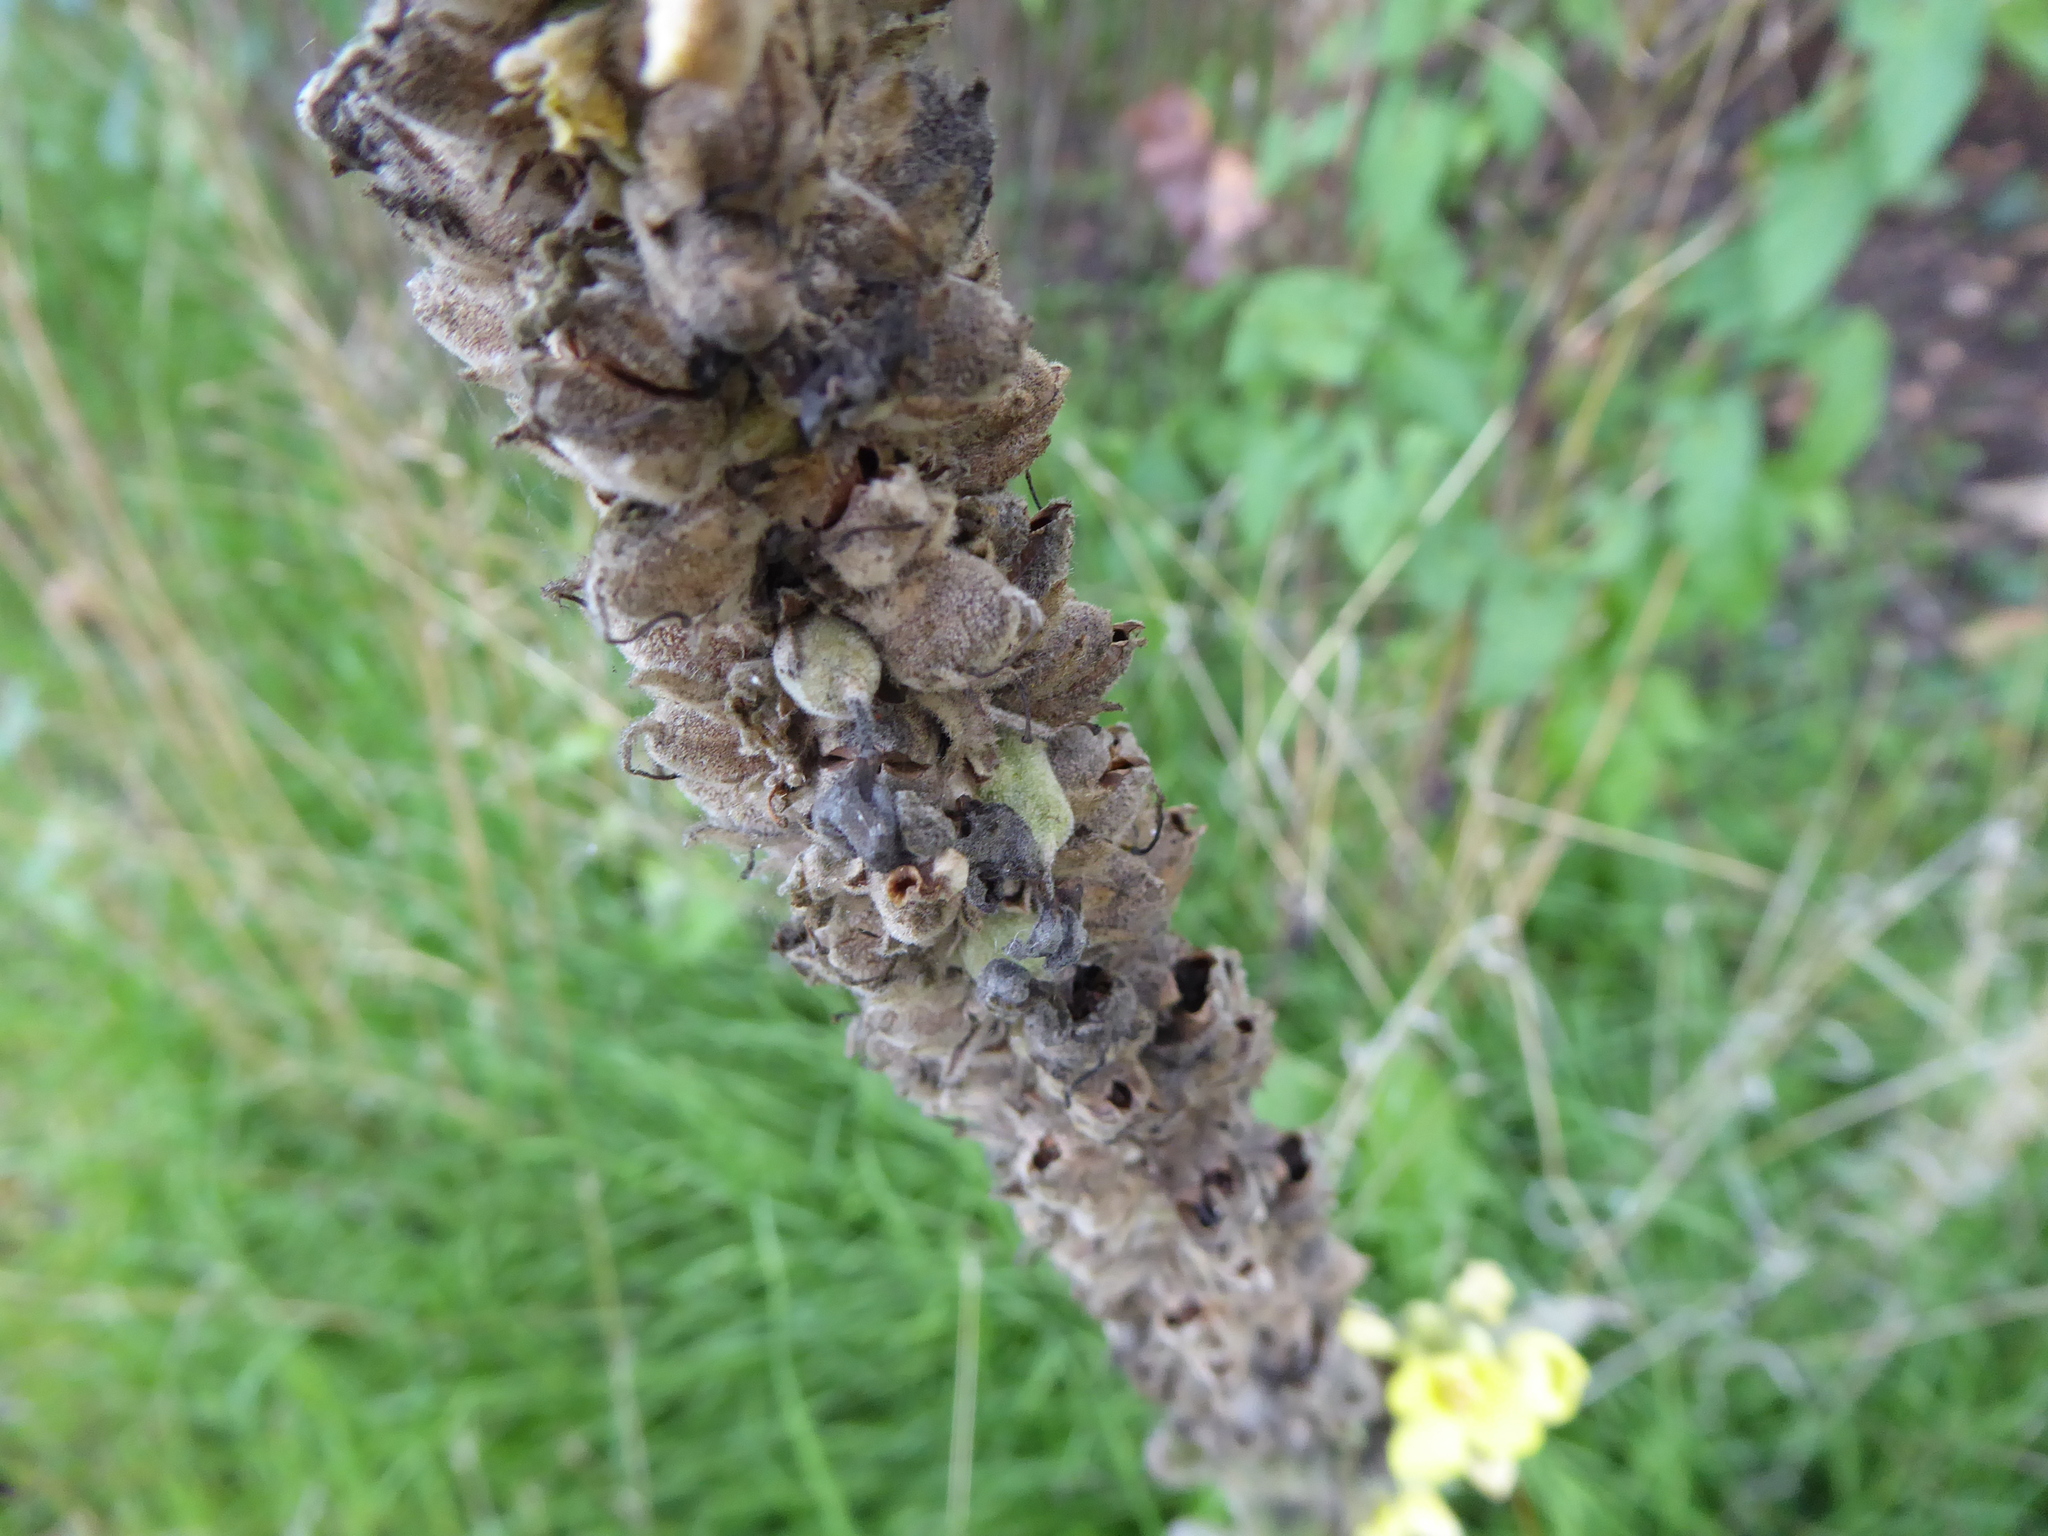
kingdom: Plantae
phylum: Tracheophyta
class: Magnoliopsida
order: Lamiales
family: Scrophulariaceae
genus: Verbascum
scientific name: Verbascum thapsus
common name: Common mullein
